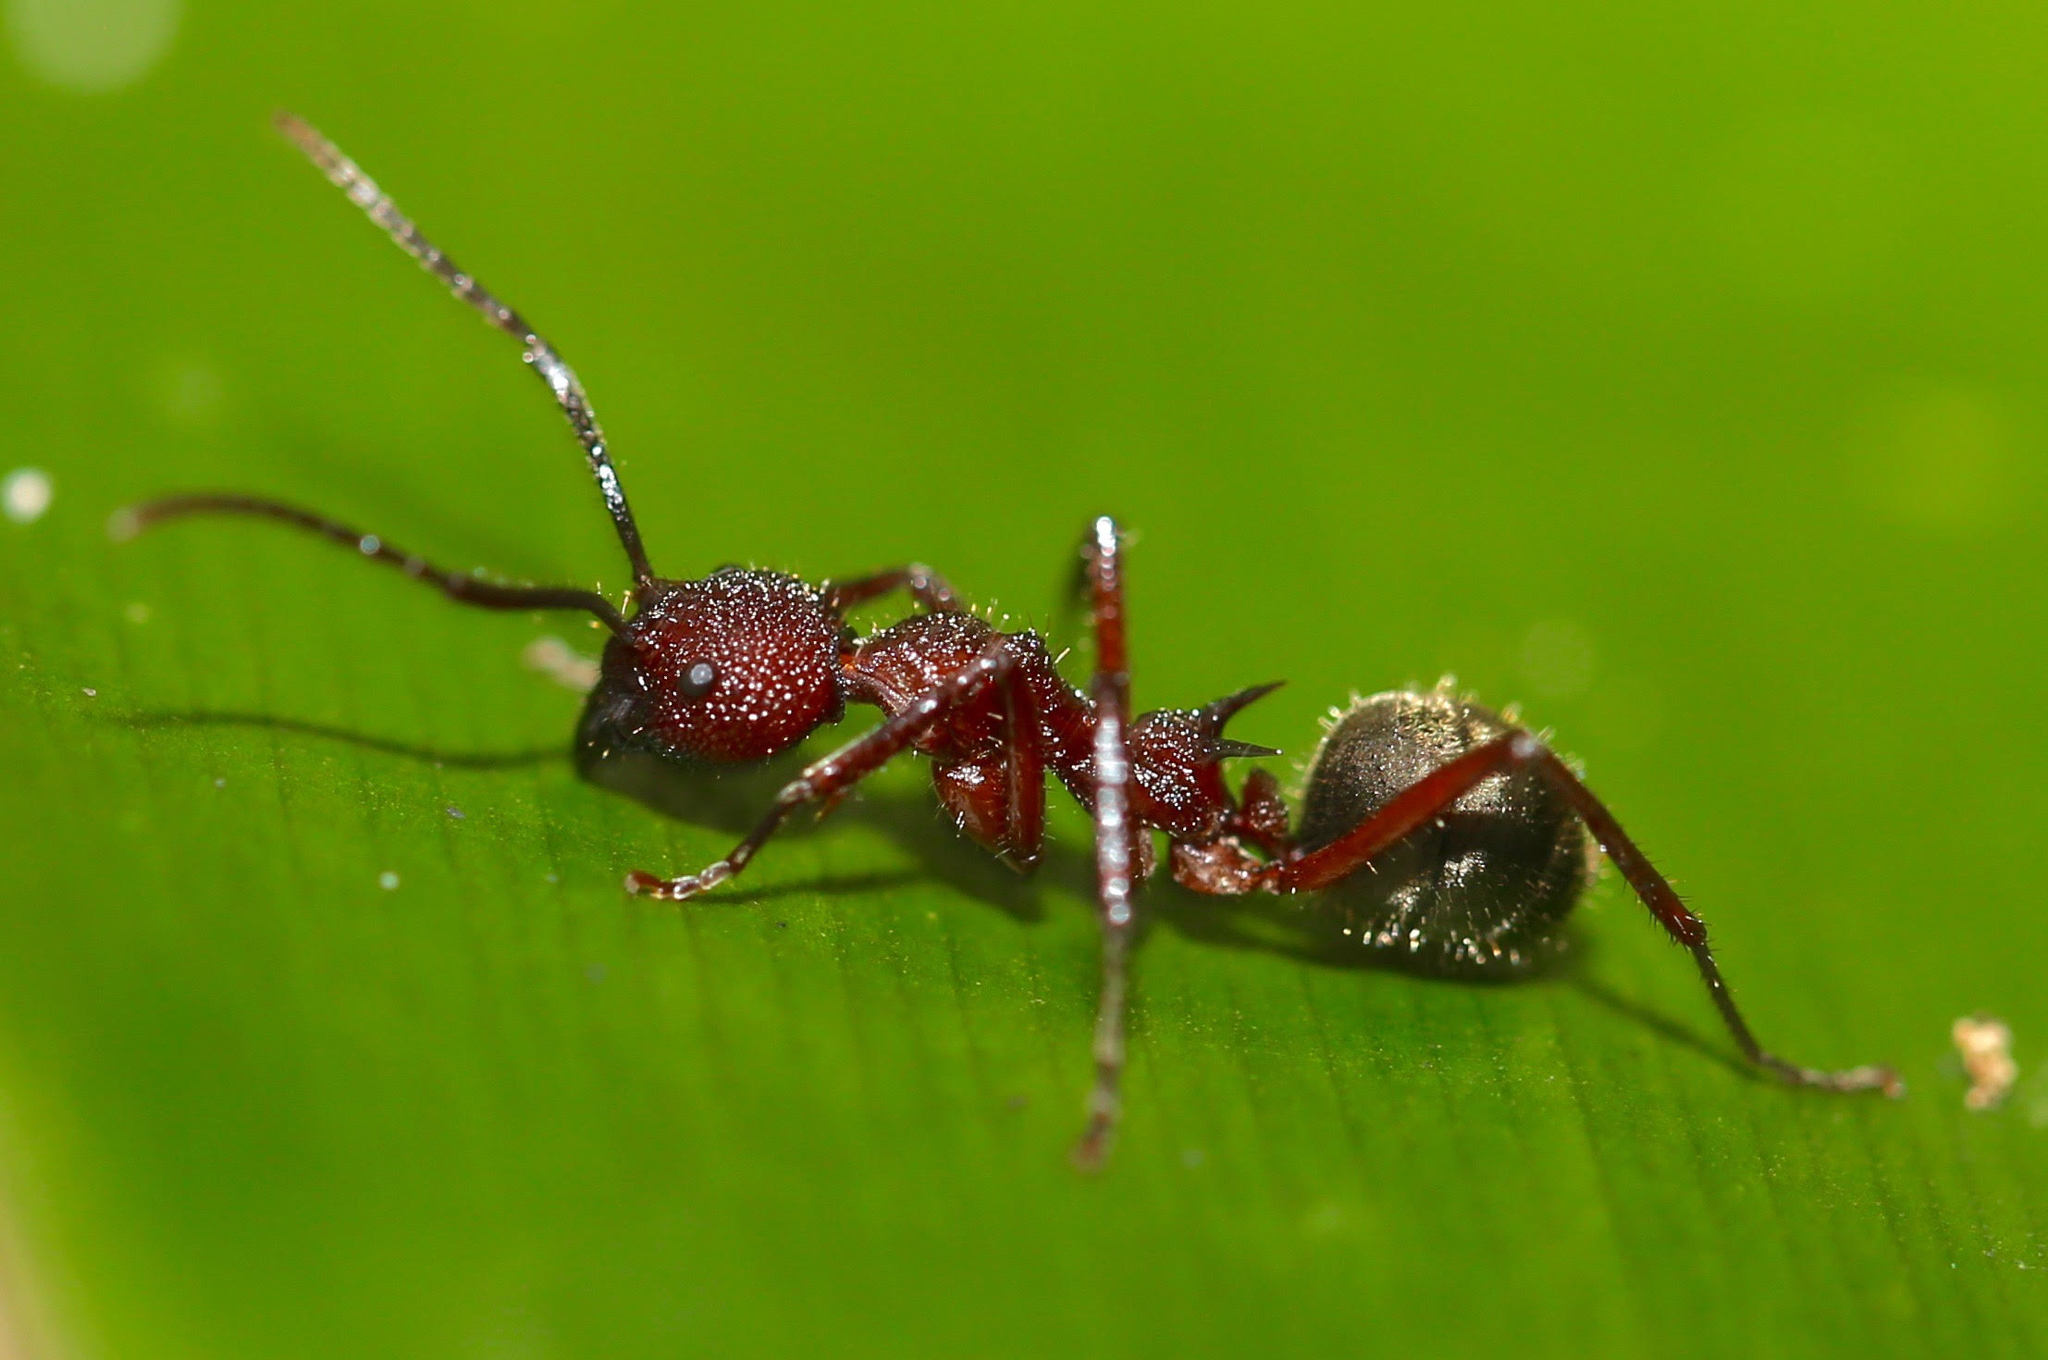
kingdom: Animalia
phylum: Arthropoda
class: Insecta
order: Hymenoptera
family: Formicidae
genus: Dolichoderus
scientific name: Dolichoderus decollatus
